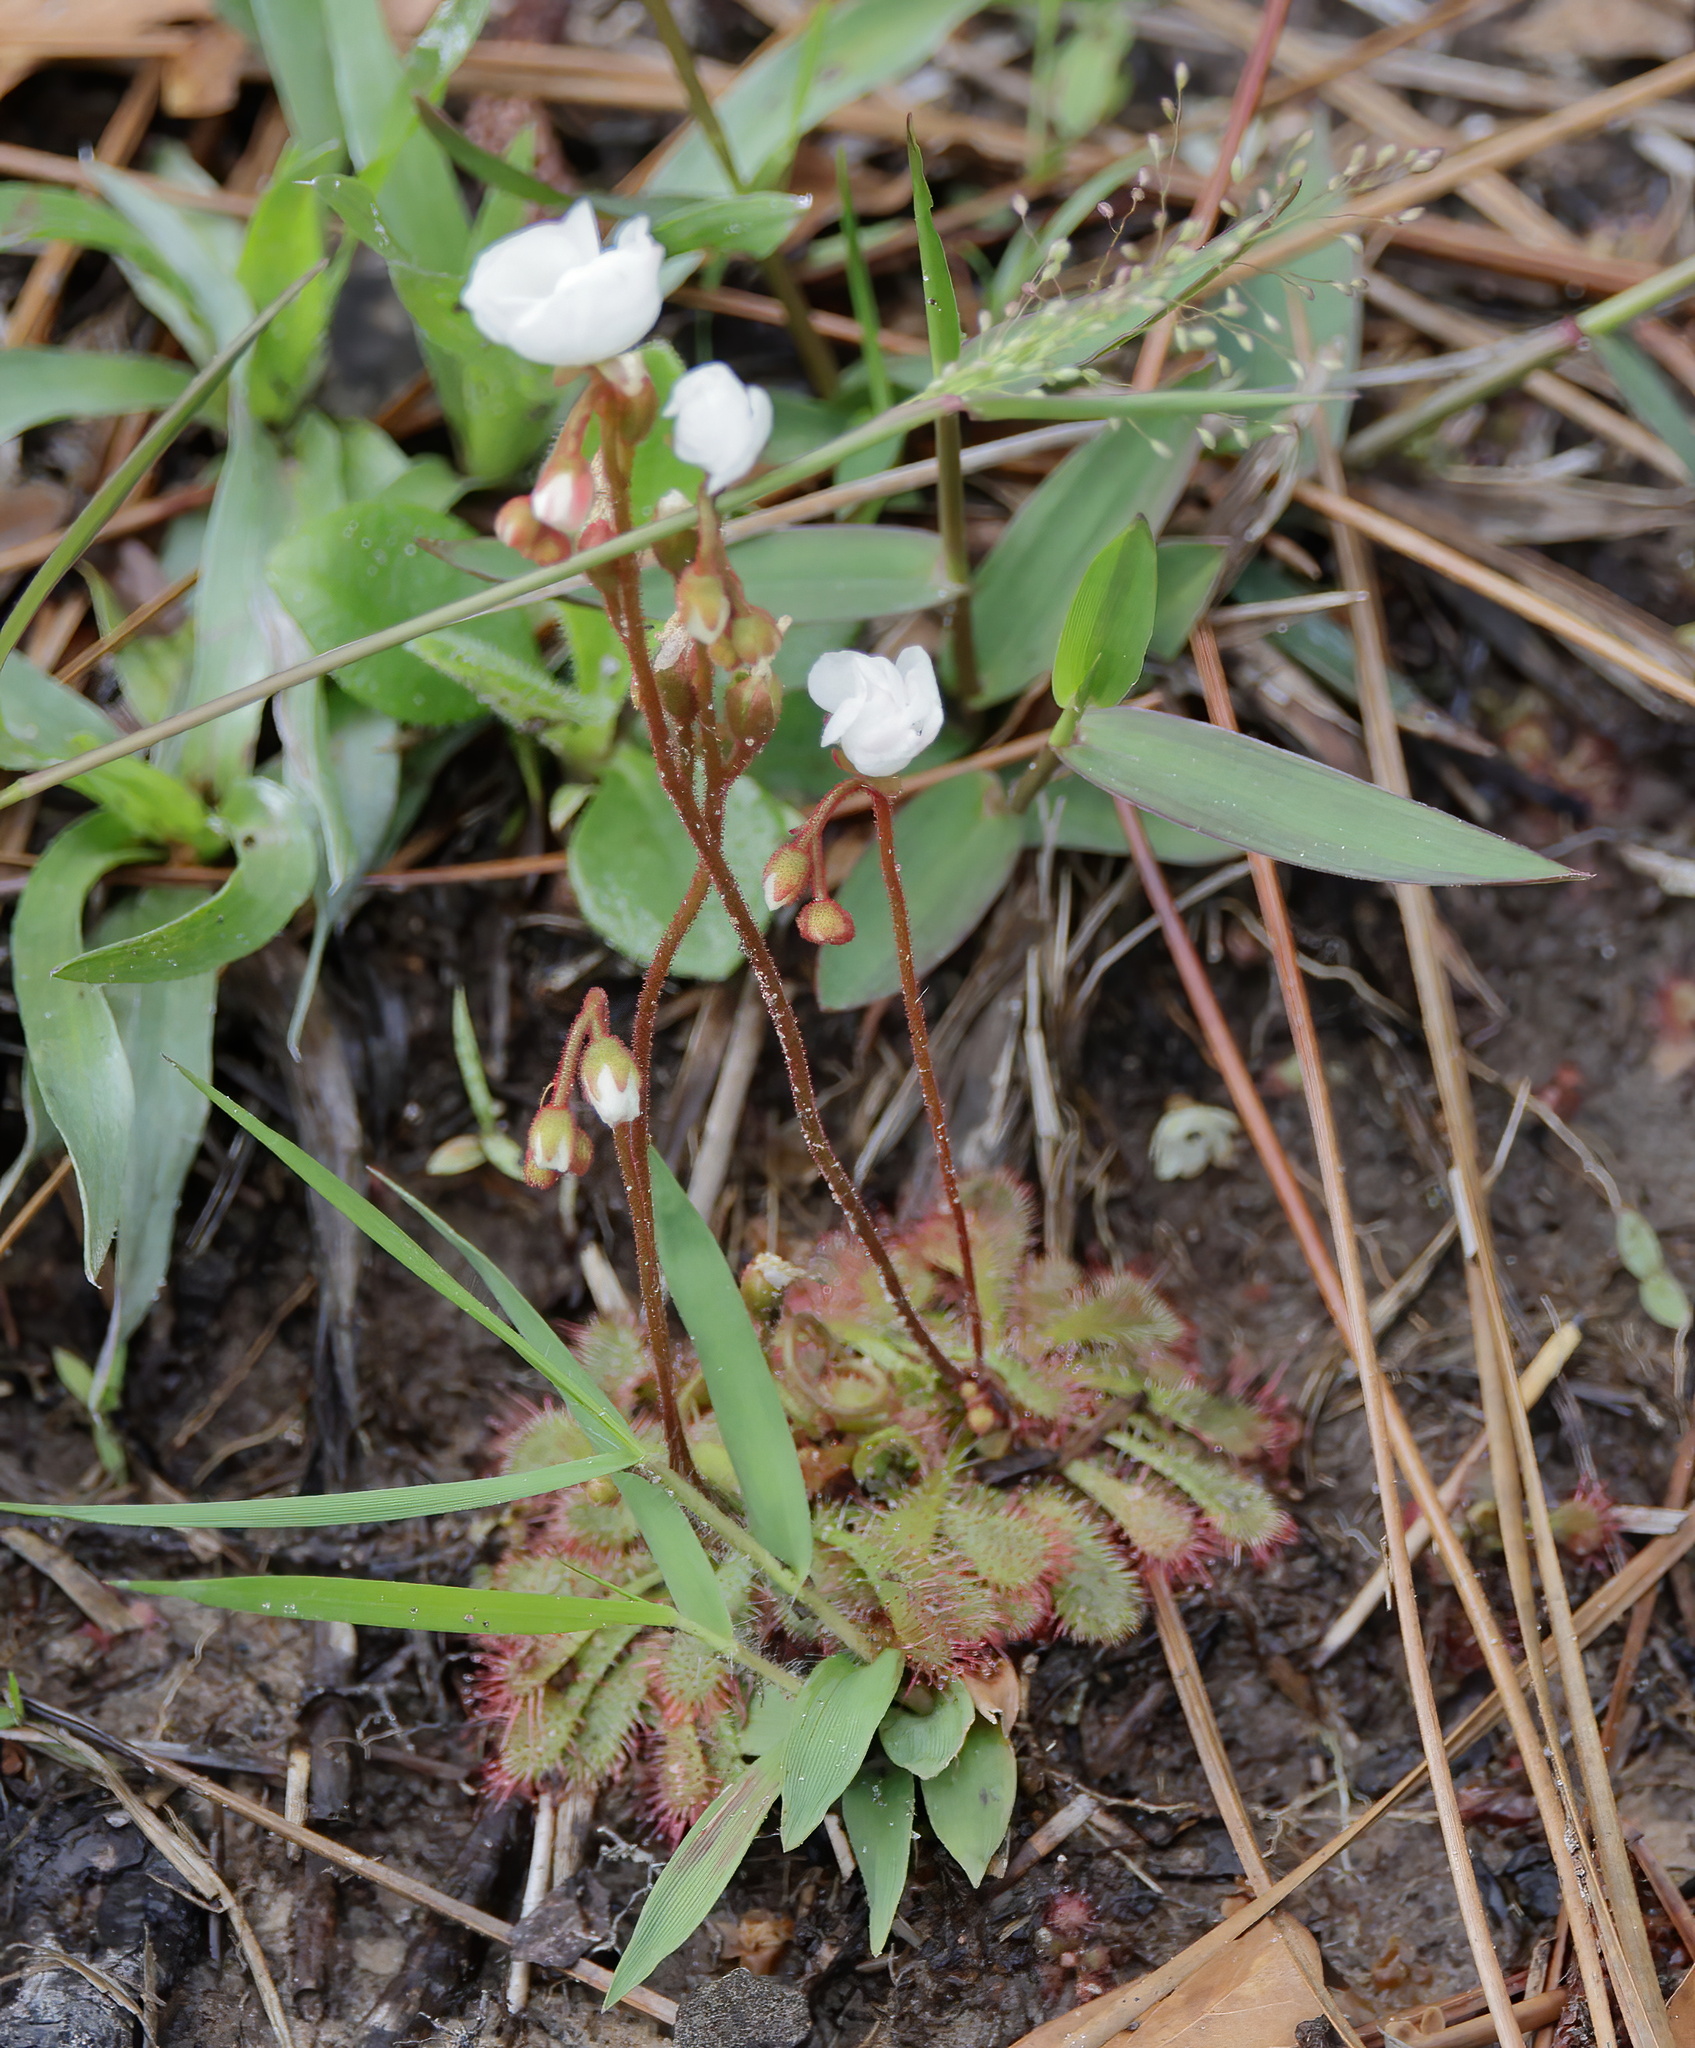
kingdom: Plantae
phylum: Tracheophyta
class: Magnoliopsida
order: Caryophyllales
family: Droseraceae
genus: Drosera
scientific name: Drosera brevifolia
